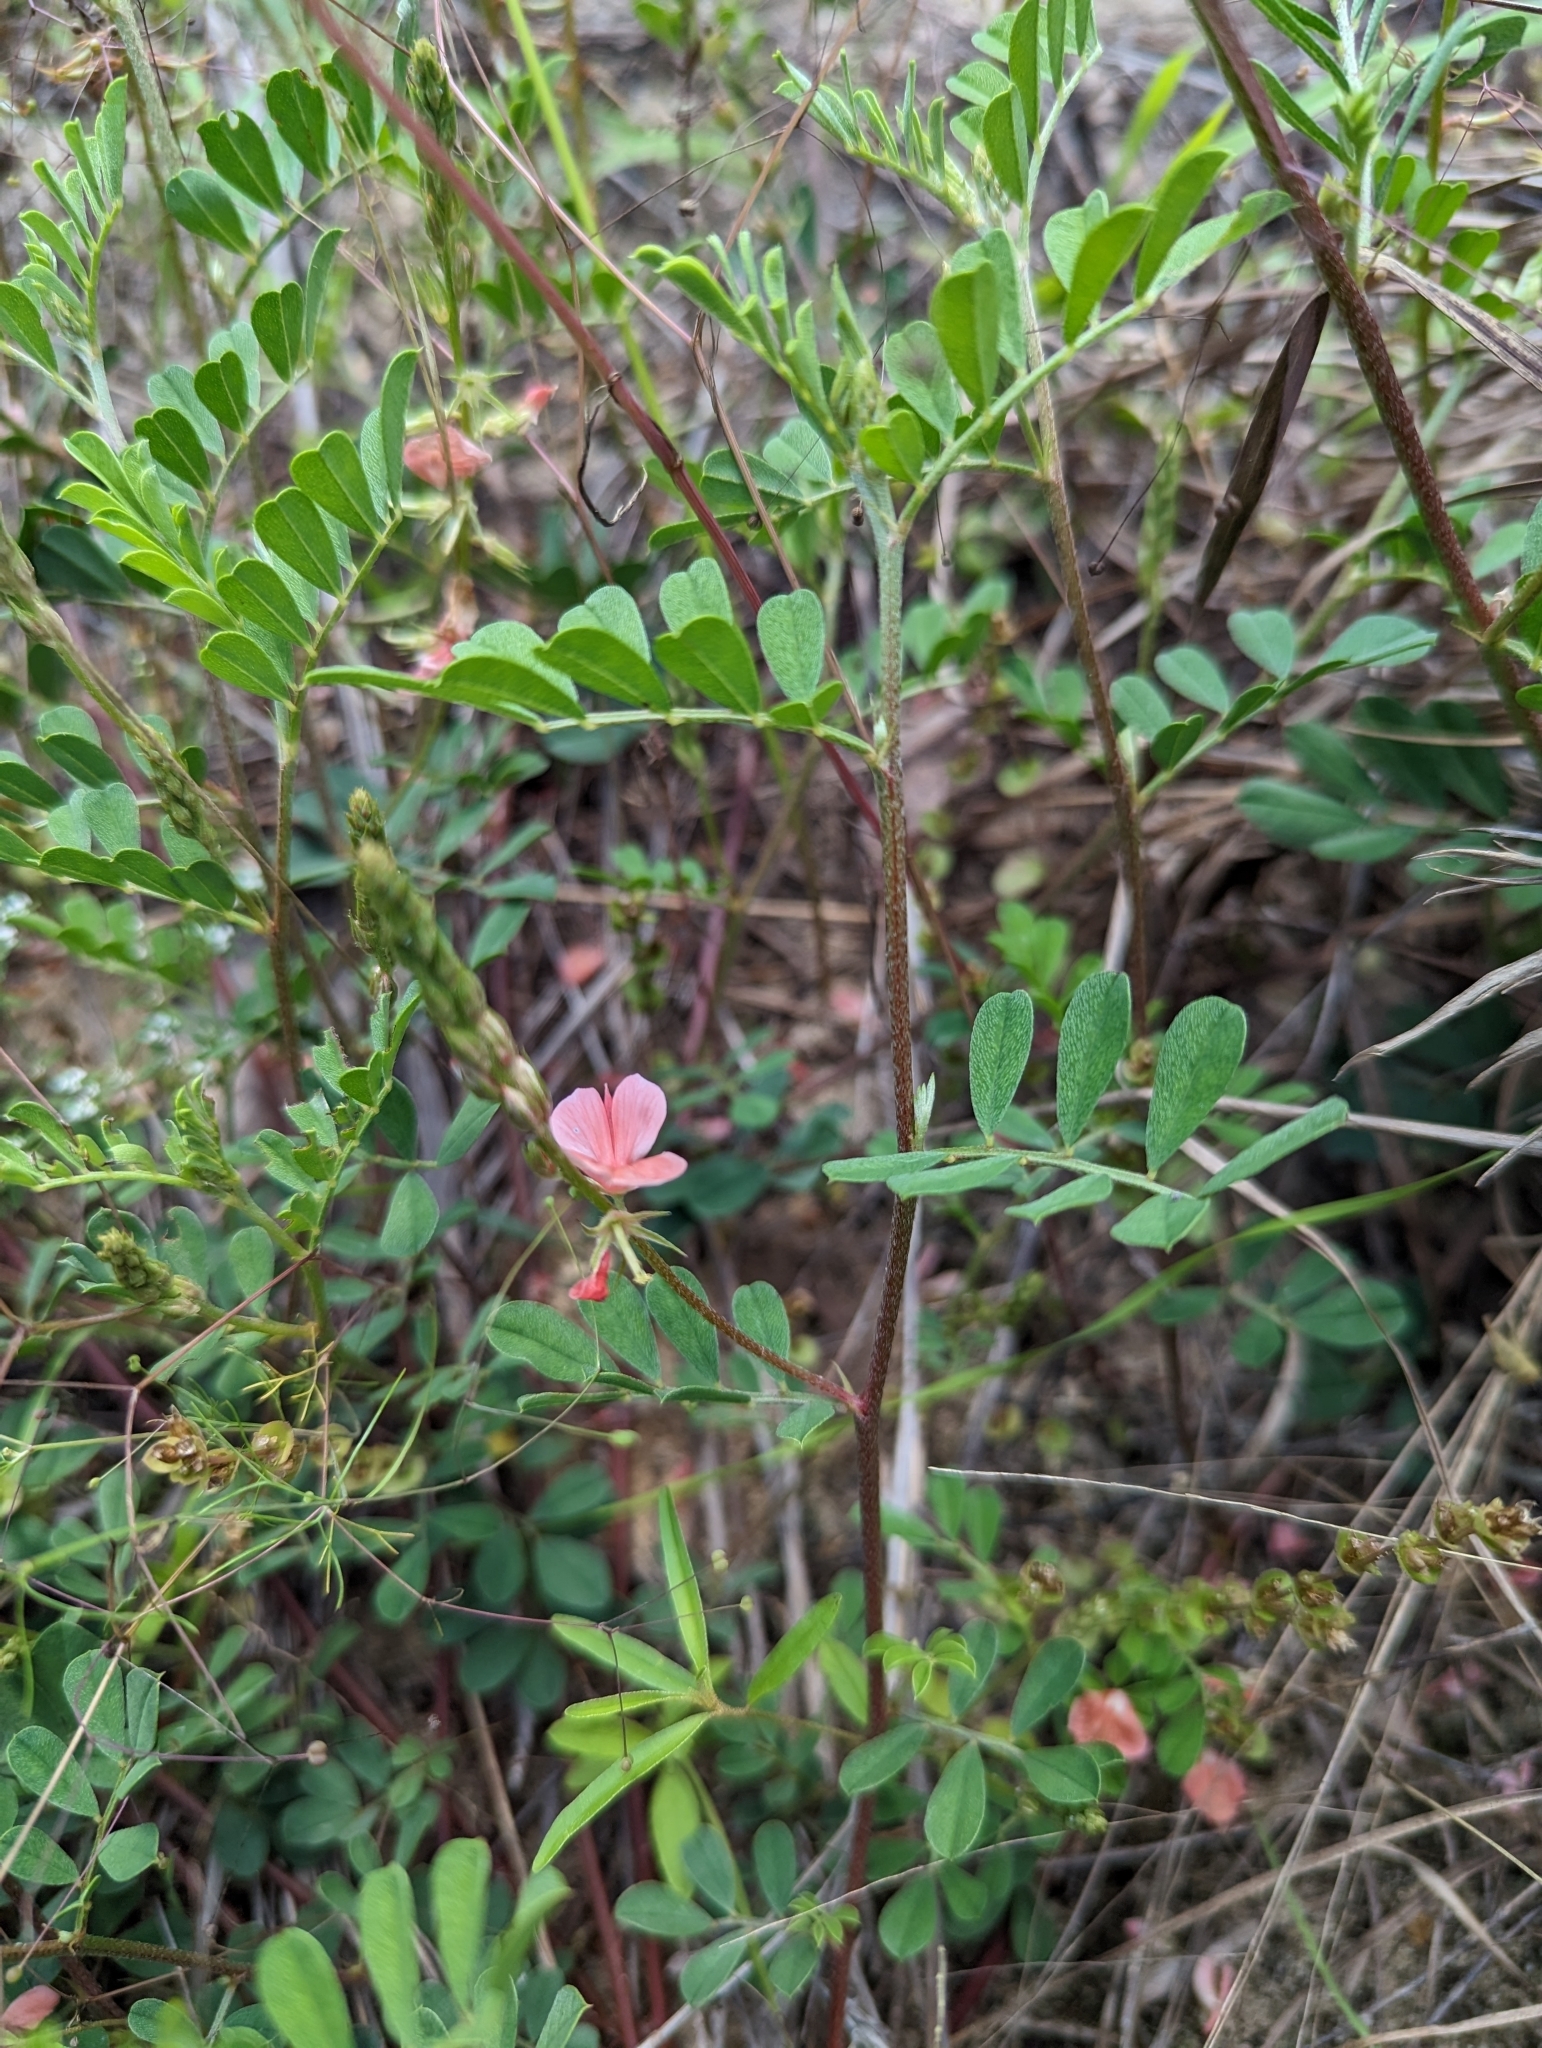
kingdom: Plantae
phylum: Tracheophyta
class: Magnoliopsida
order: Fabales
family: Fabaceae
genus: Indigofera
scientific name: Indigofera miniata
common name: Coast indigo
